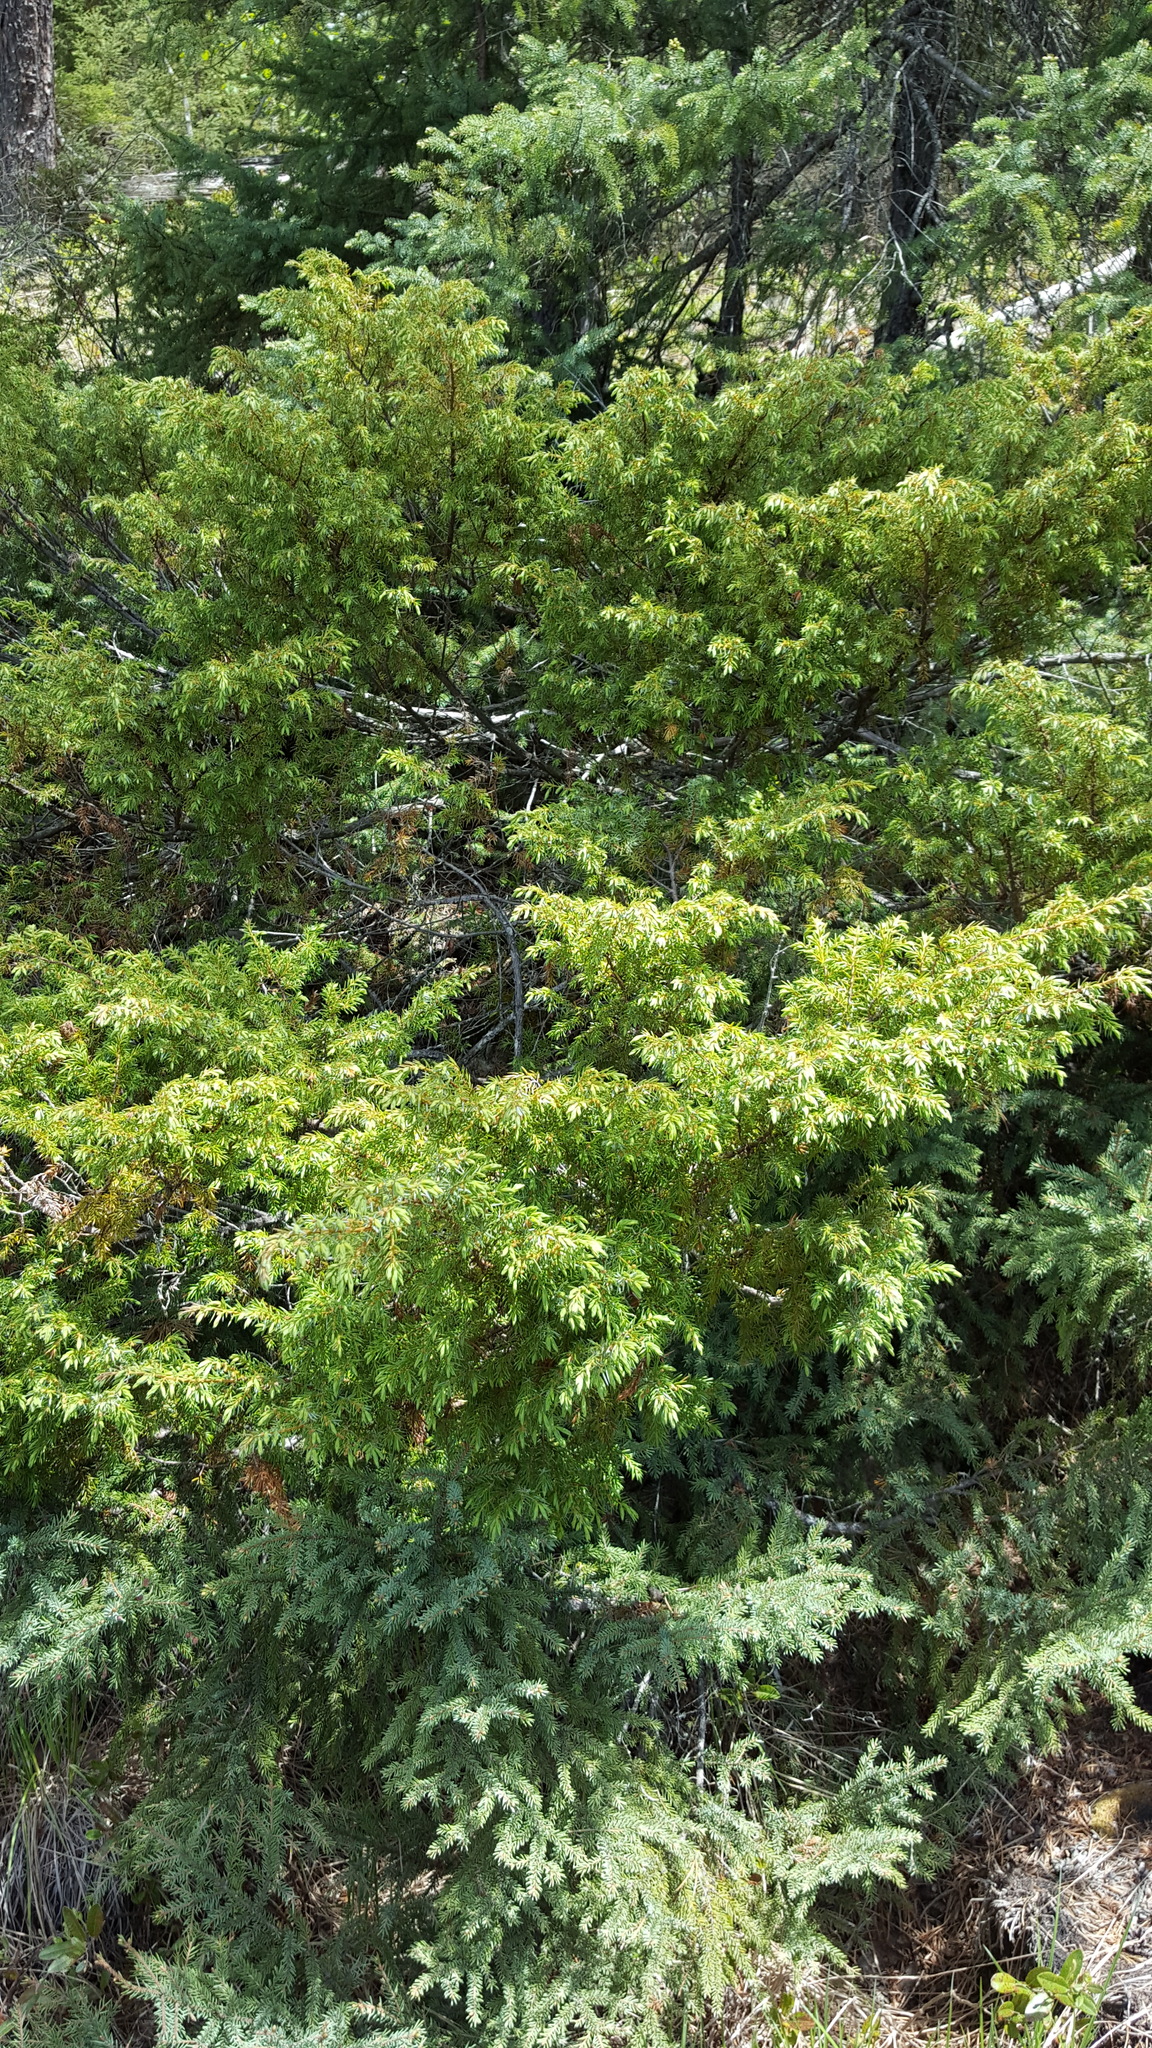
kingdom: Plantae
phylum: Tracheophyta
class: Pinopsida
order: Pinales
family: Cupressaceae
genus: Juniperus
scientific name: Juniperus communis
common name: Common juniper
